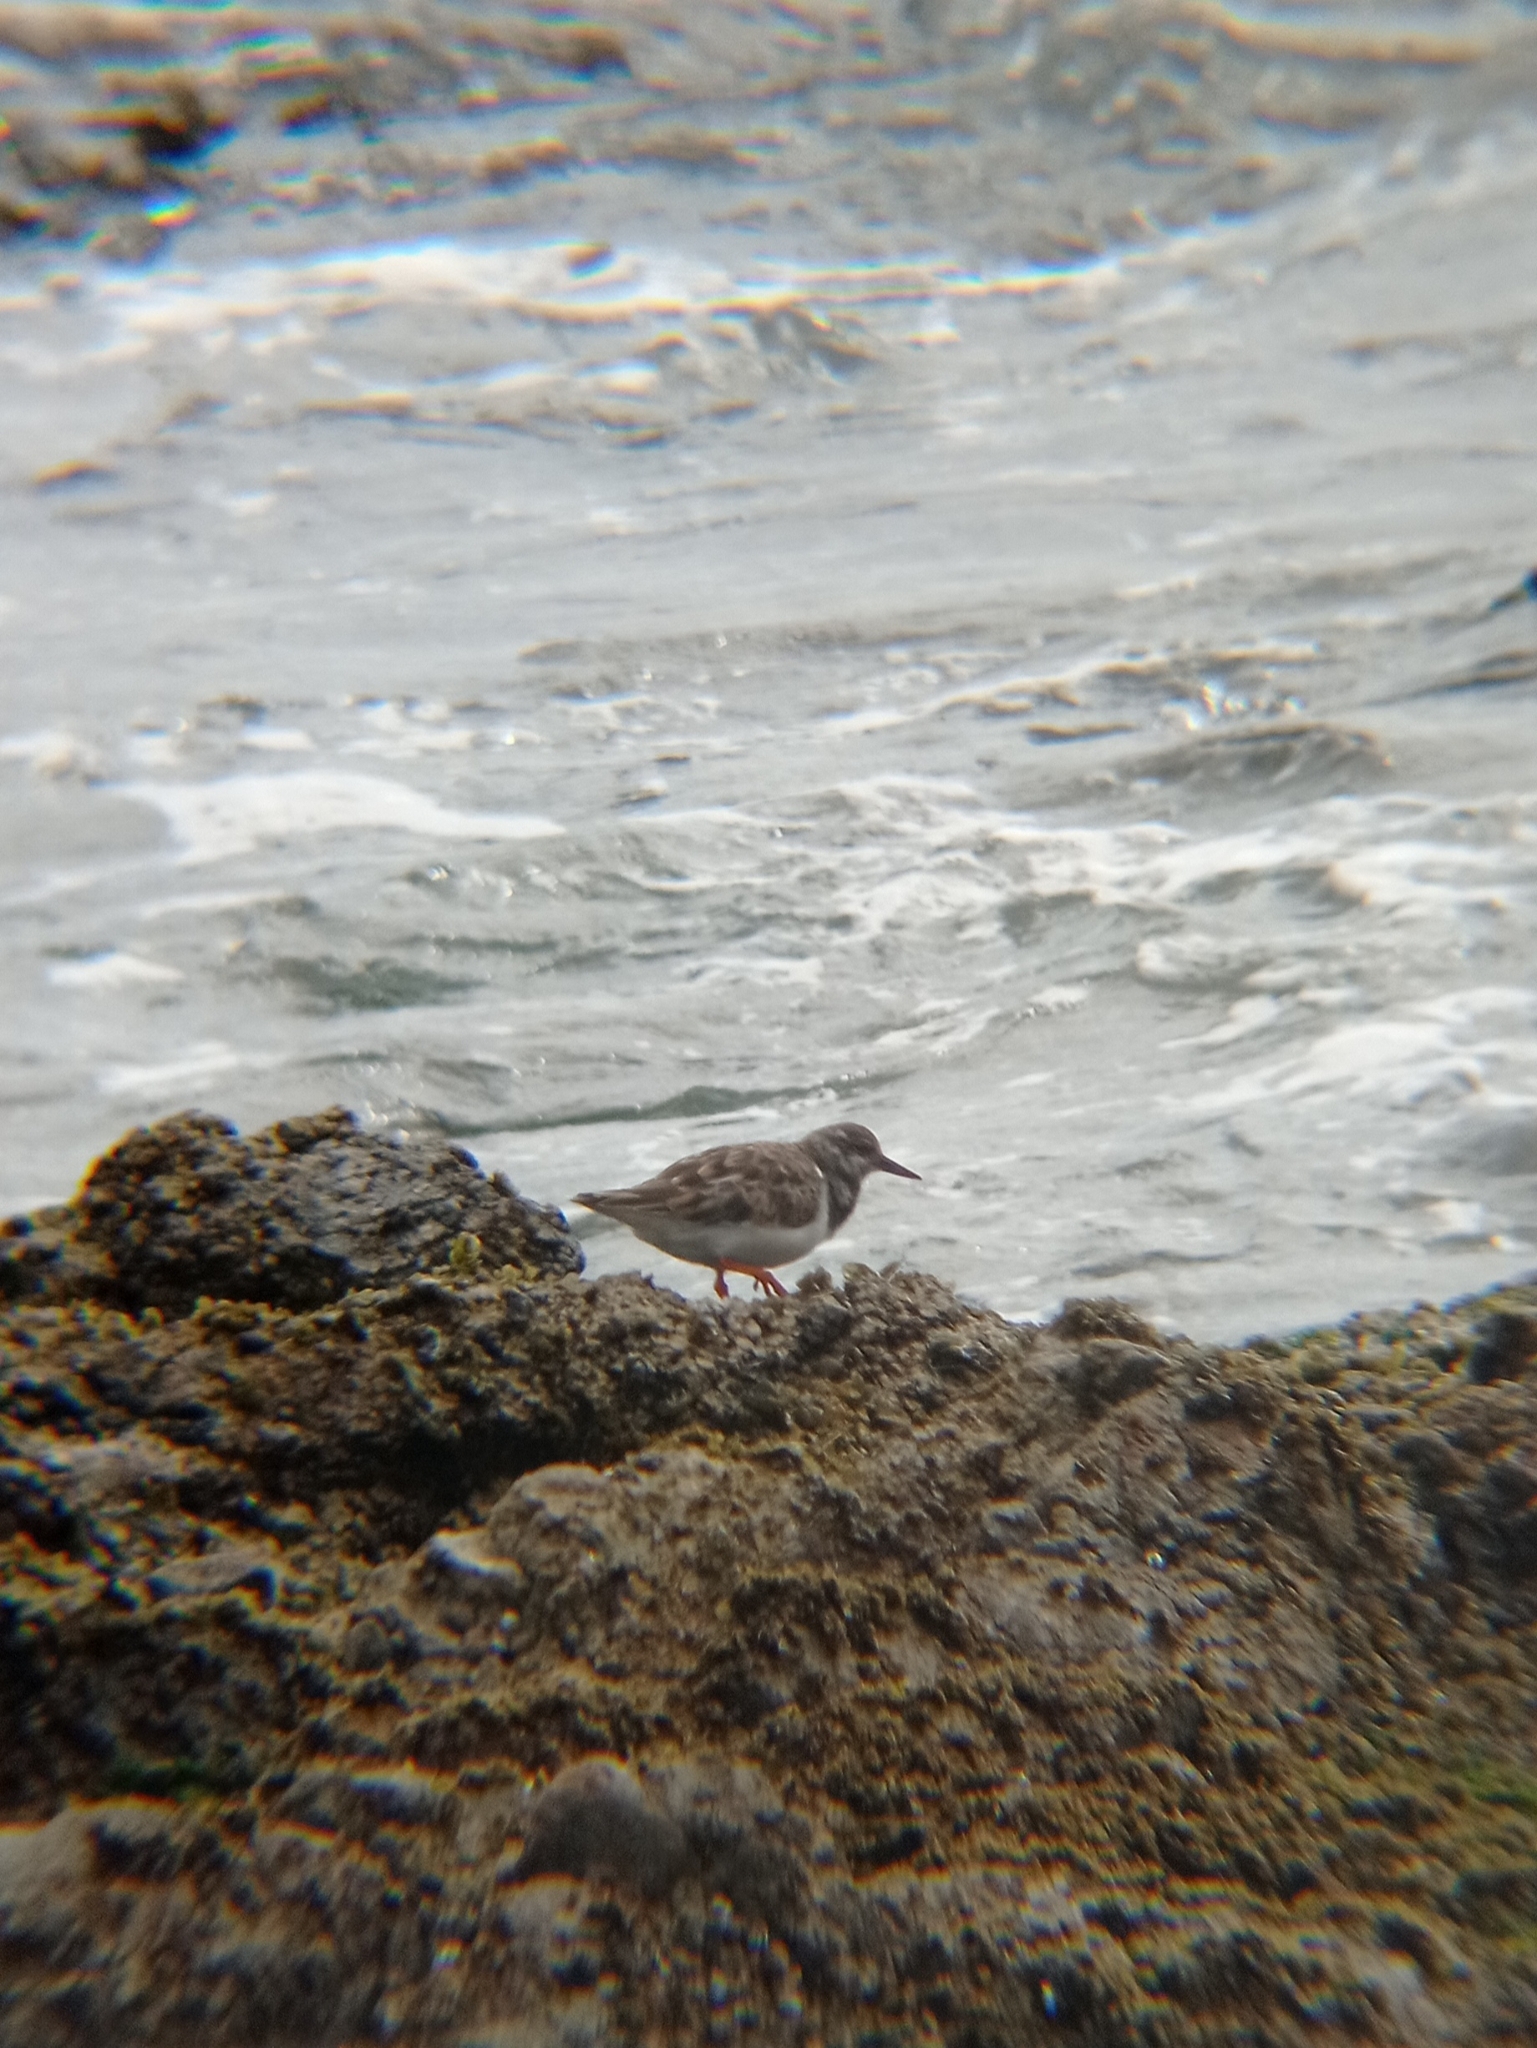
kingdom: Animalia
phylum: Chordata
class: Aves
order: Charadriiformes
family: Scolopacidae
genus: Arenaria
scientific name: Arenaria interpres
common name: Ruddy turnstone
